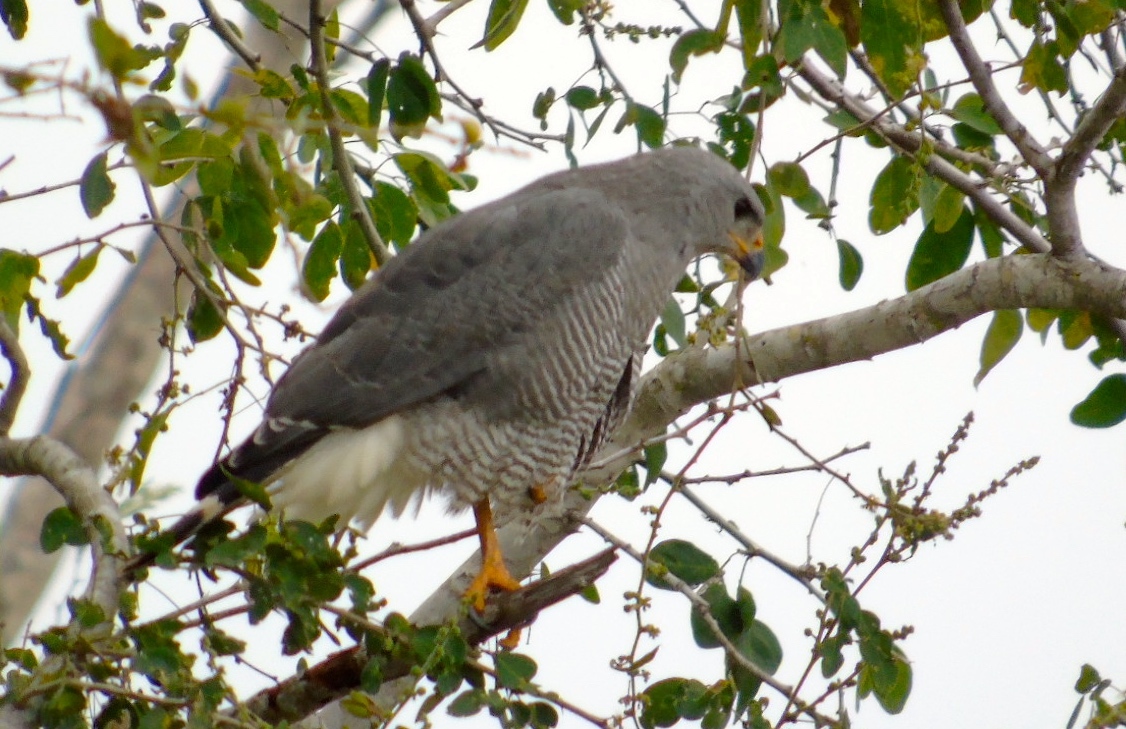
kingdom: Animalia
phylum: Chordata
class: Aves
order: Accipitriformes
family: Accipitridae
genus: Buteo
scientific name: Buteo nitidus
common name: Grey-lined hawk
